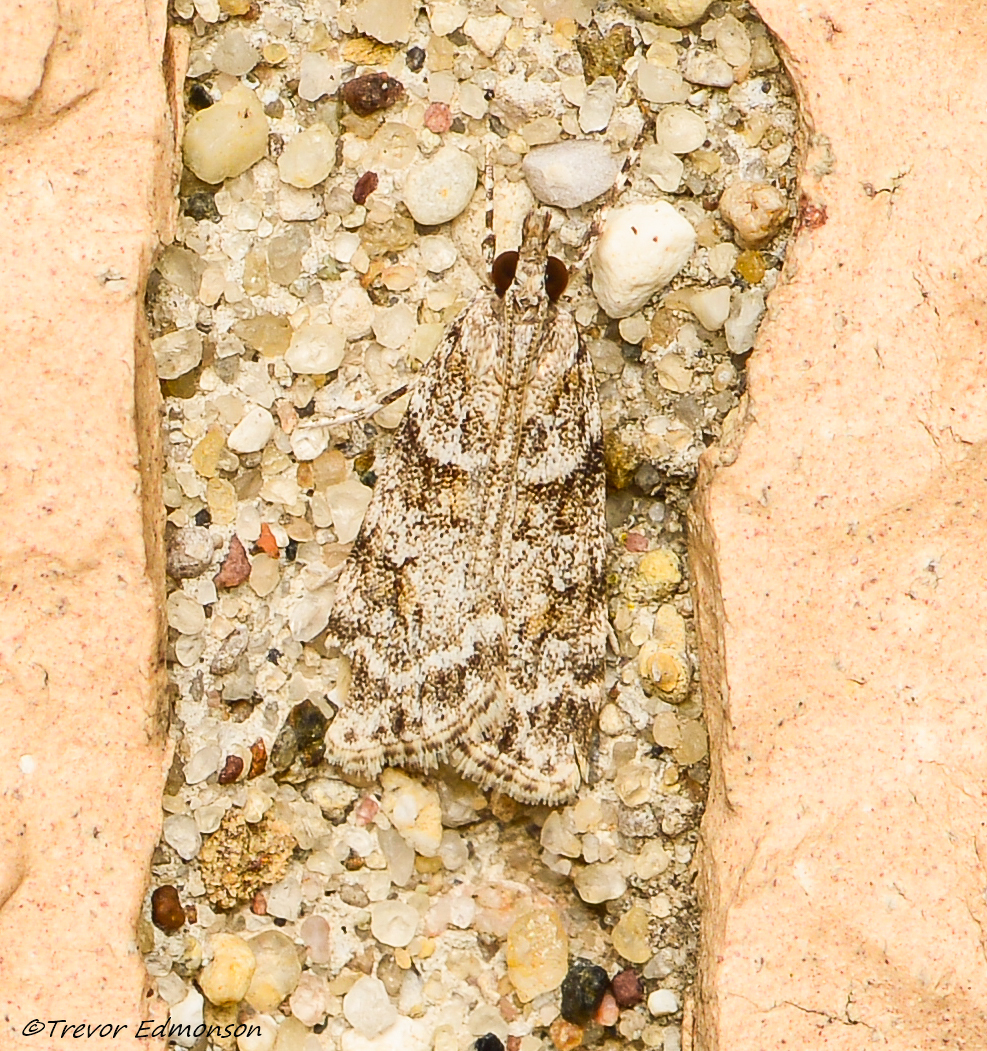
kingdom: Animalia
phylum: Arthropoda
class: Insecta
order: Lepidoptera
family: Crambidae
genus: Scoparia
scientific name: Scoparia biplagialis
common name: Double-striped scoparia moth
